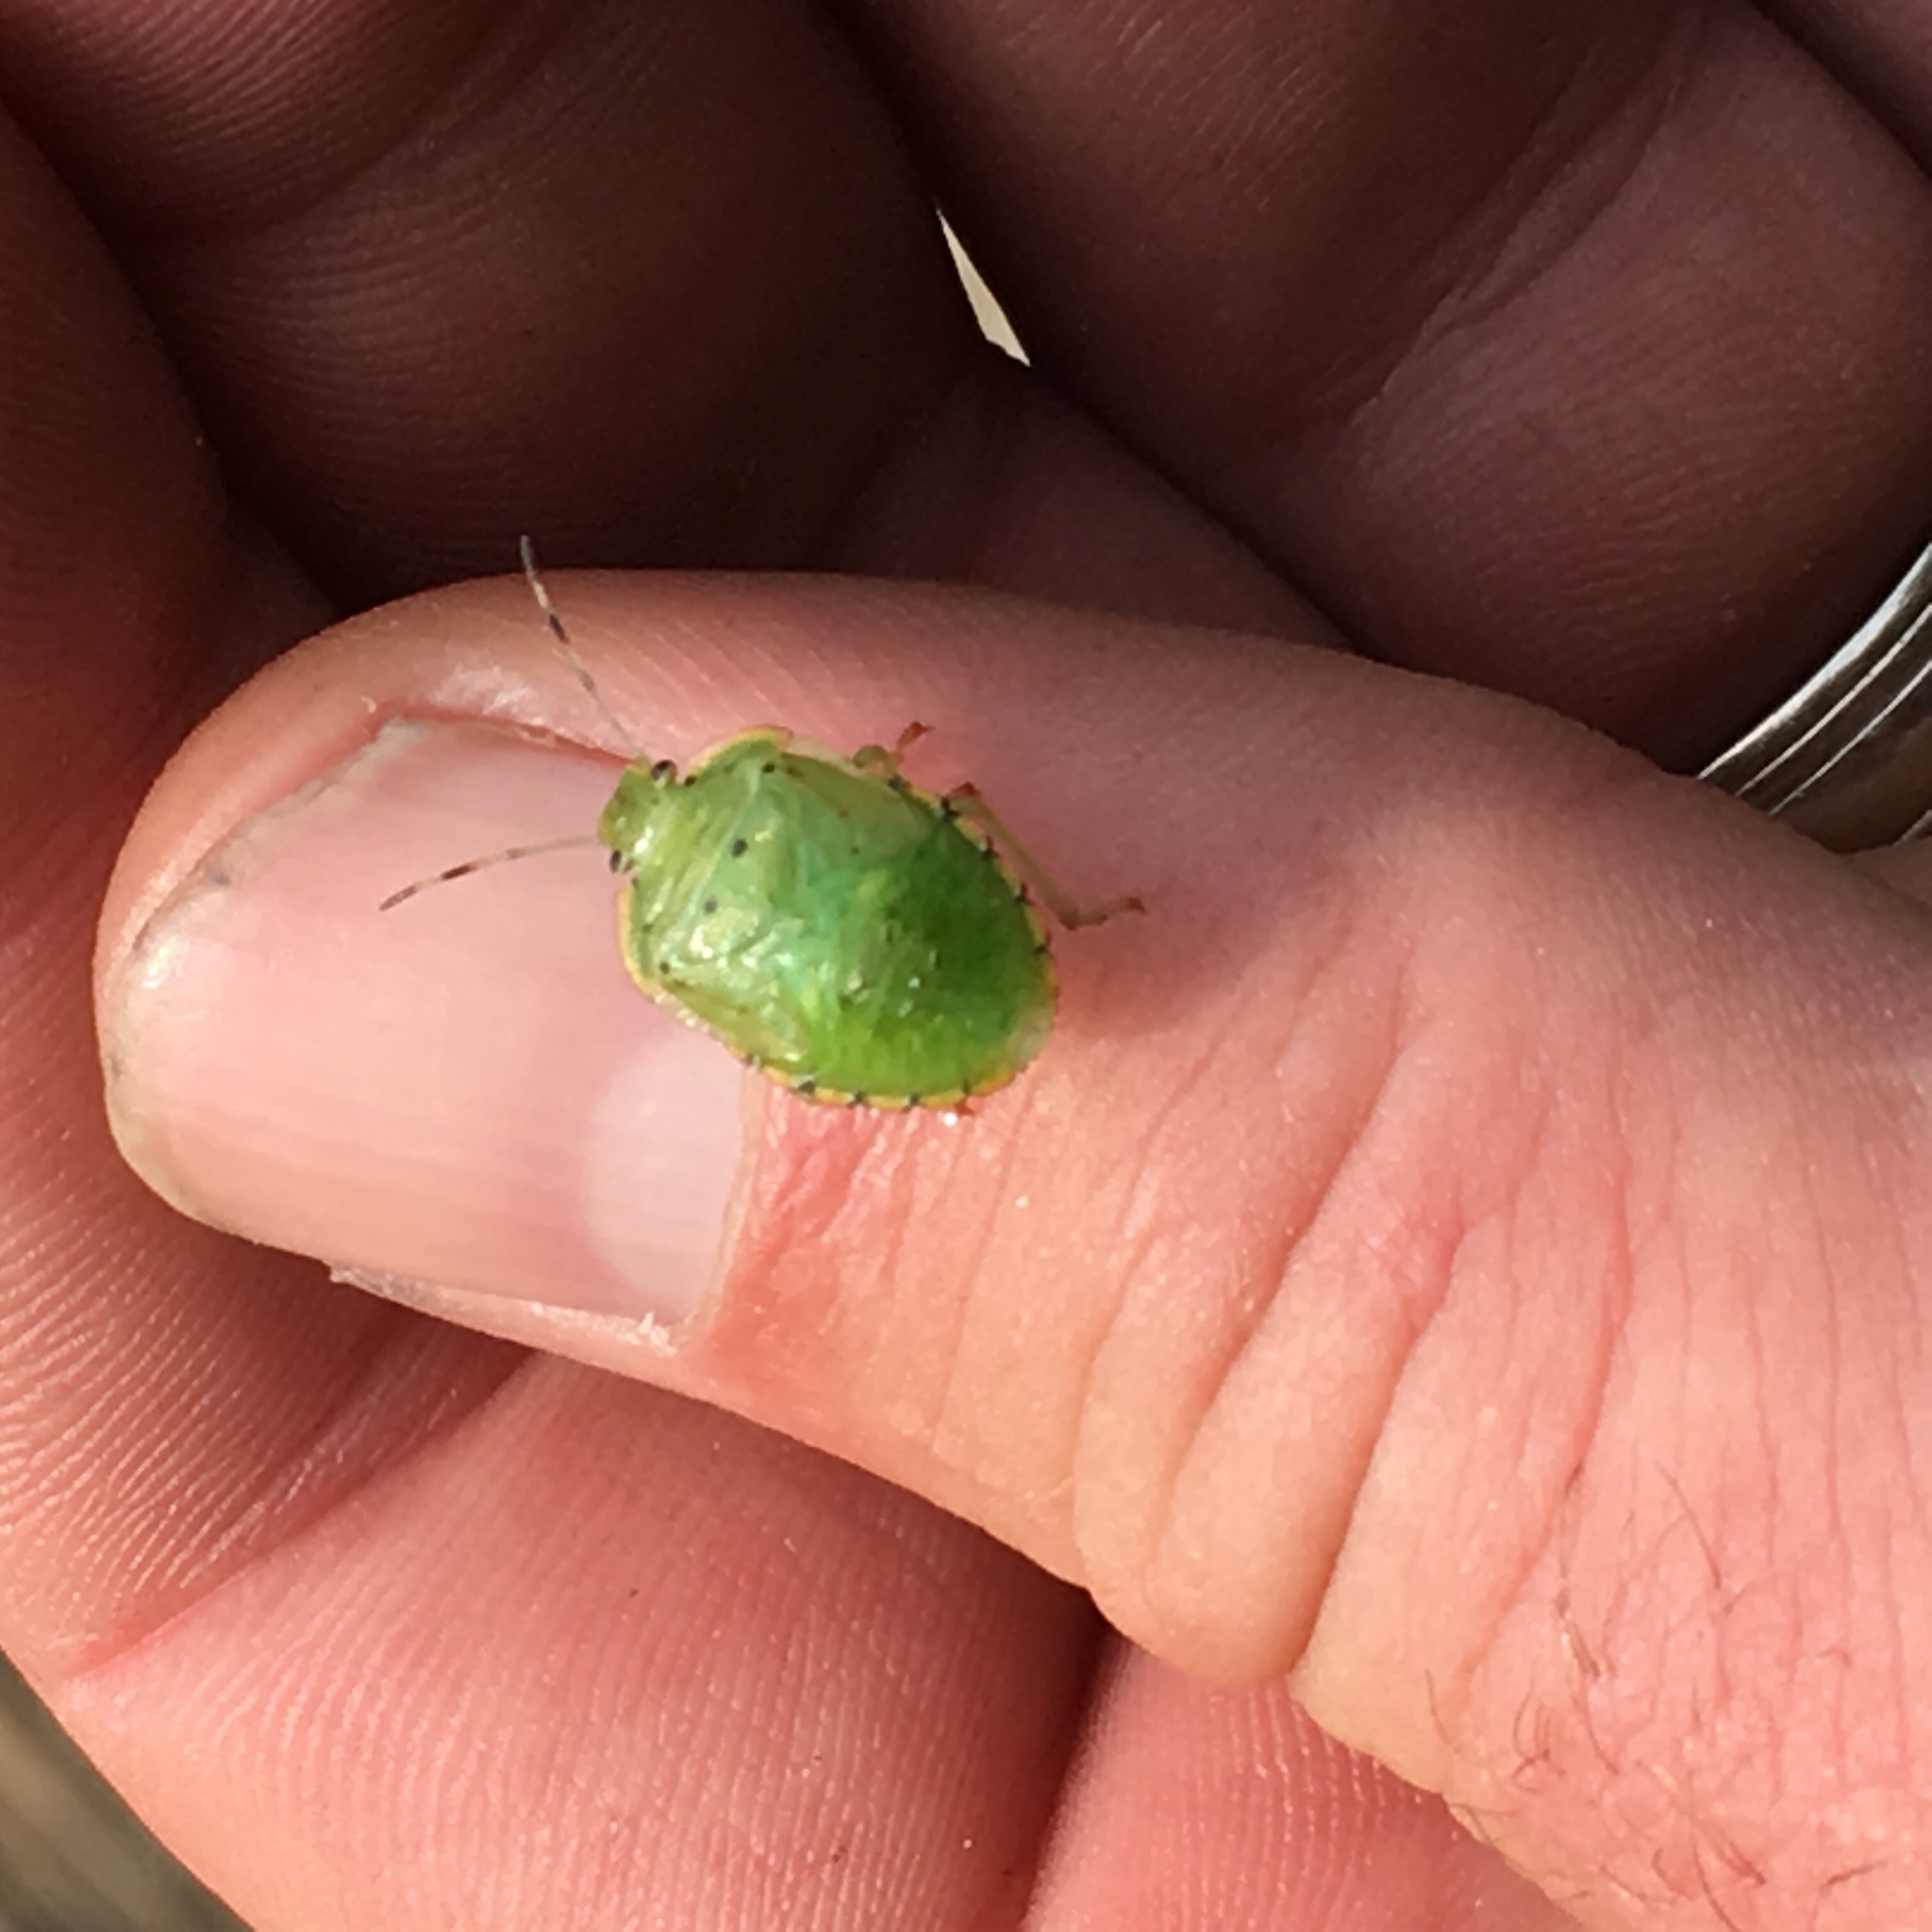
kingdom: Animalia
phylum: Arthropoda
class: Insecta
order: Hemiptera
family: Pentatomidae
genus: Chinavia
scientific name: Chinavia hilaris
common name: Green stink bug
